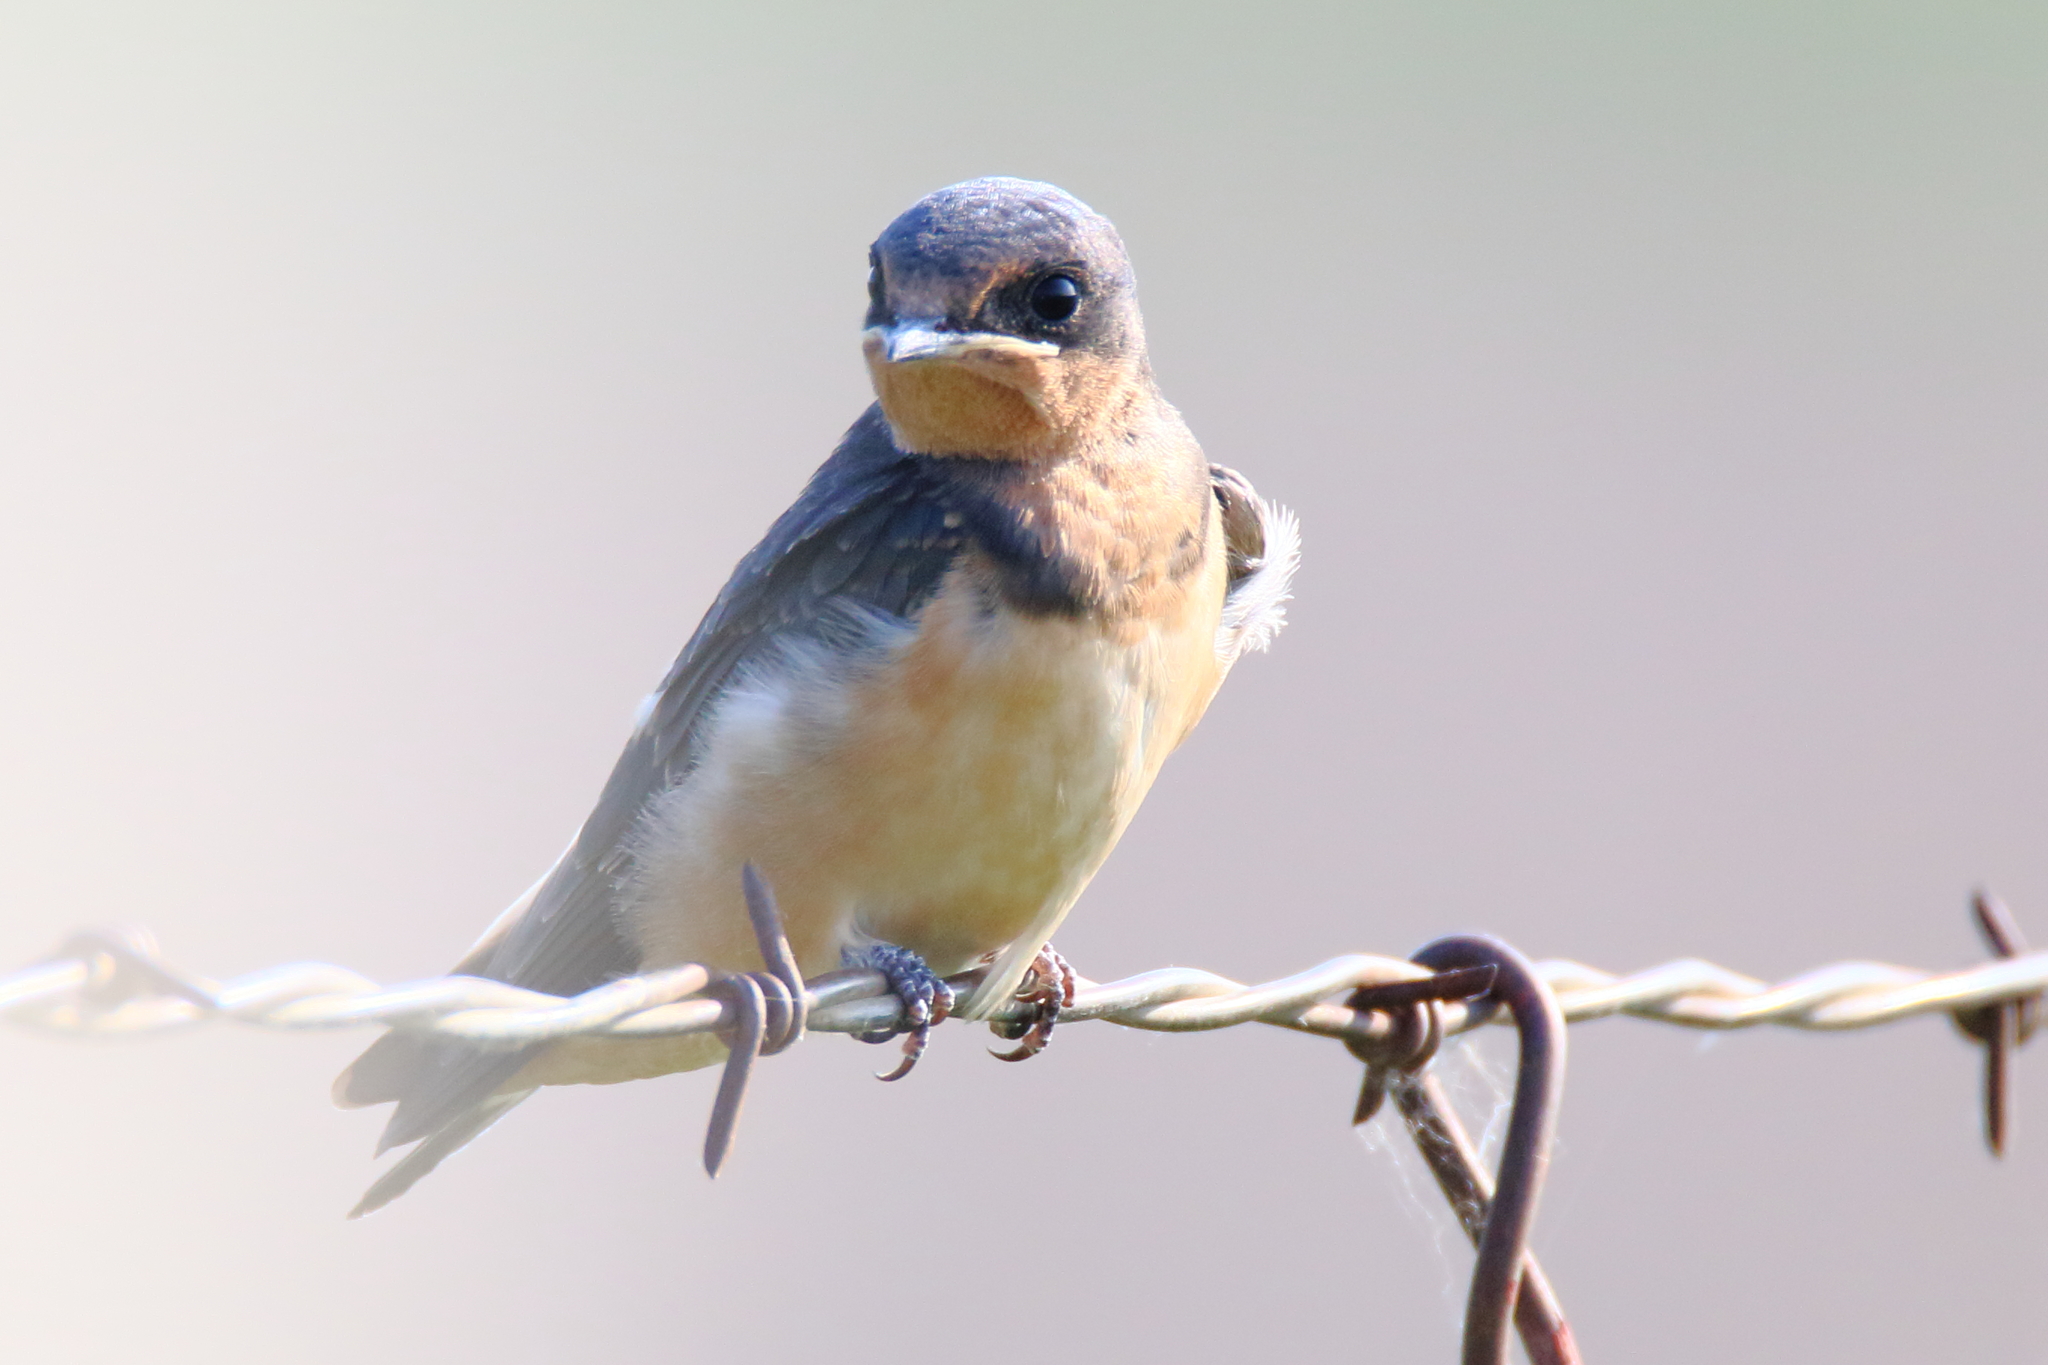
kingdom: Animalia
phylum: Chordata
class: Aves
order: Passeriformes
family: Hirundinidae
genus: Hirundo
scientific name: Hirundo rustica
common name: Barn swallow
